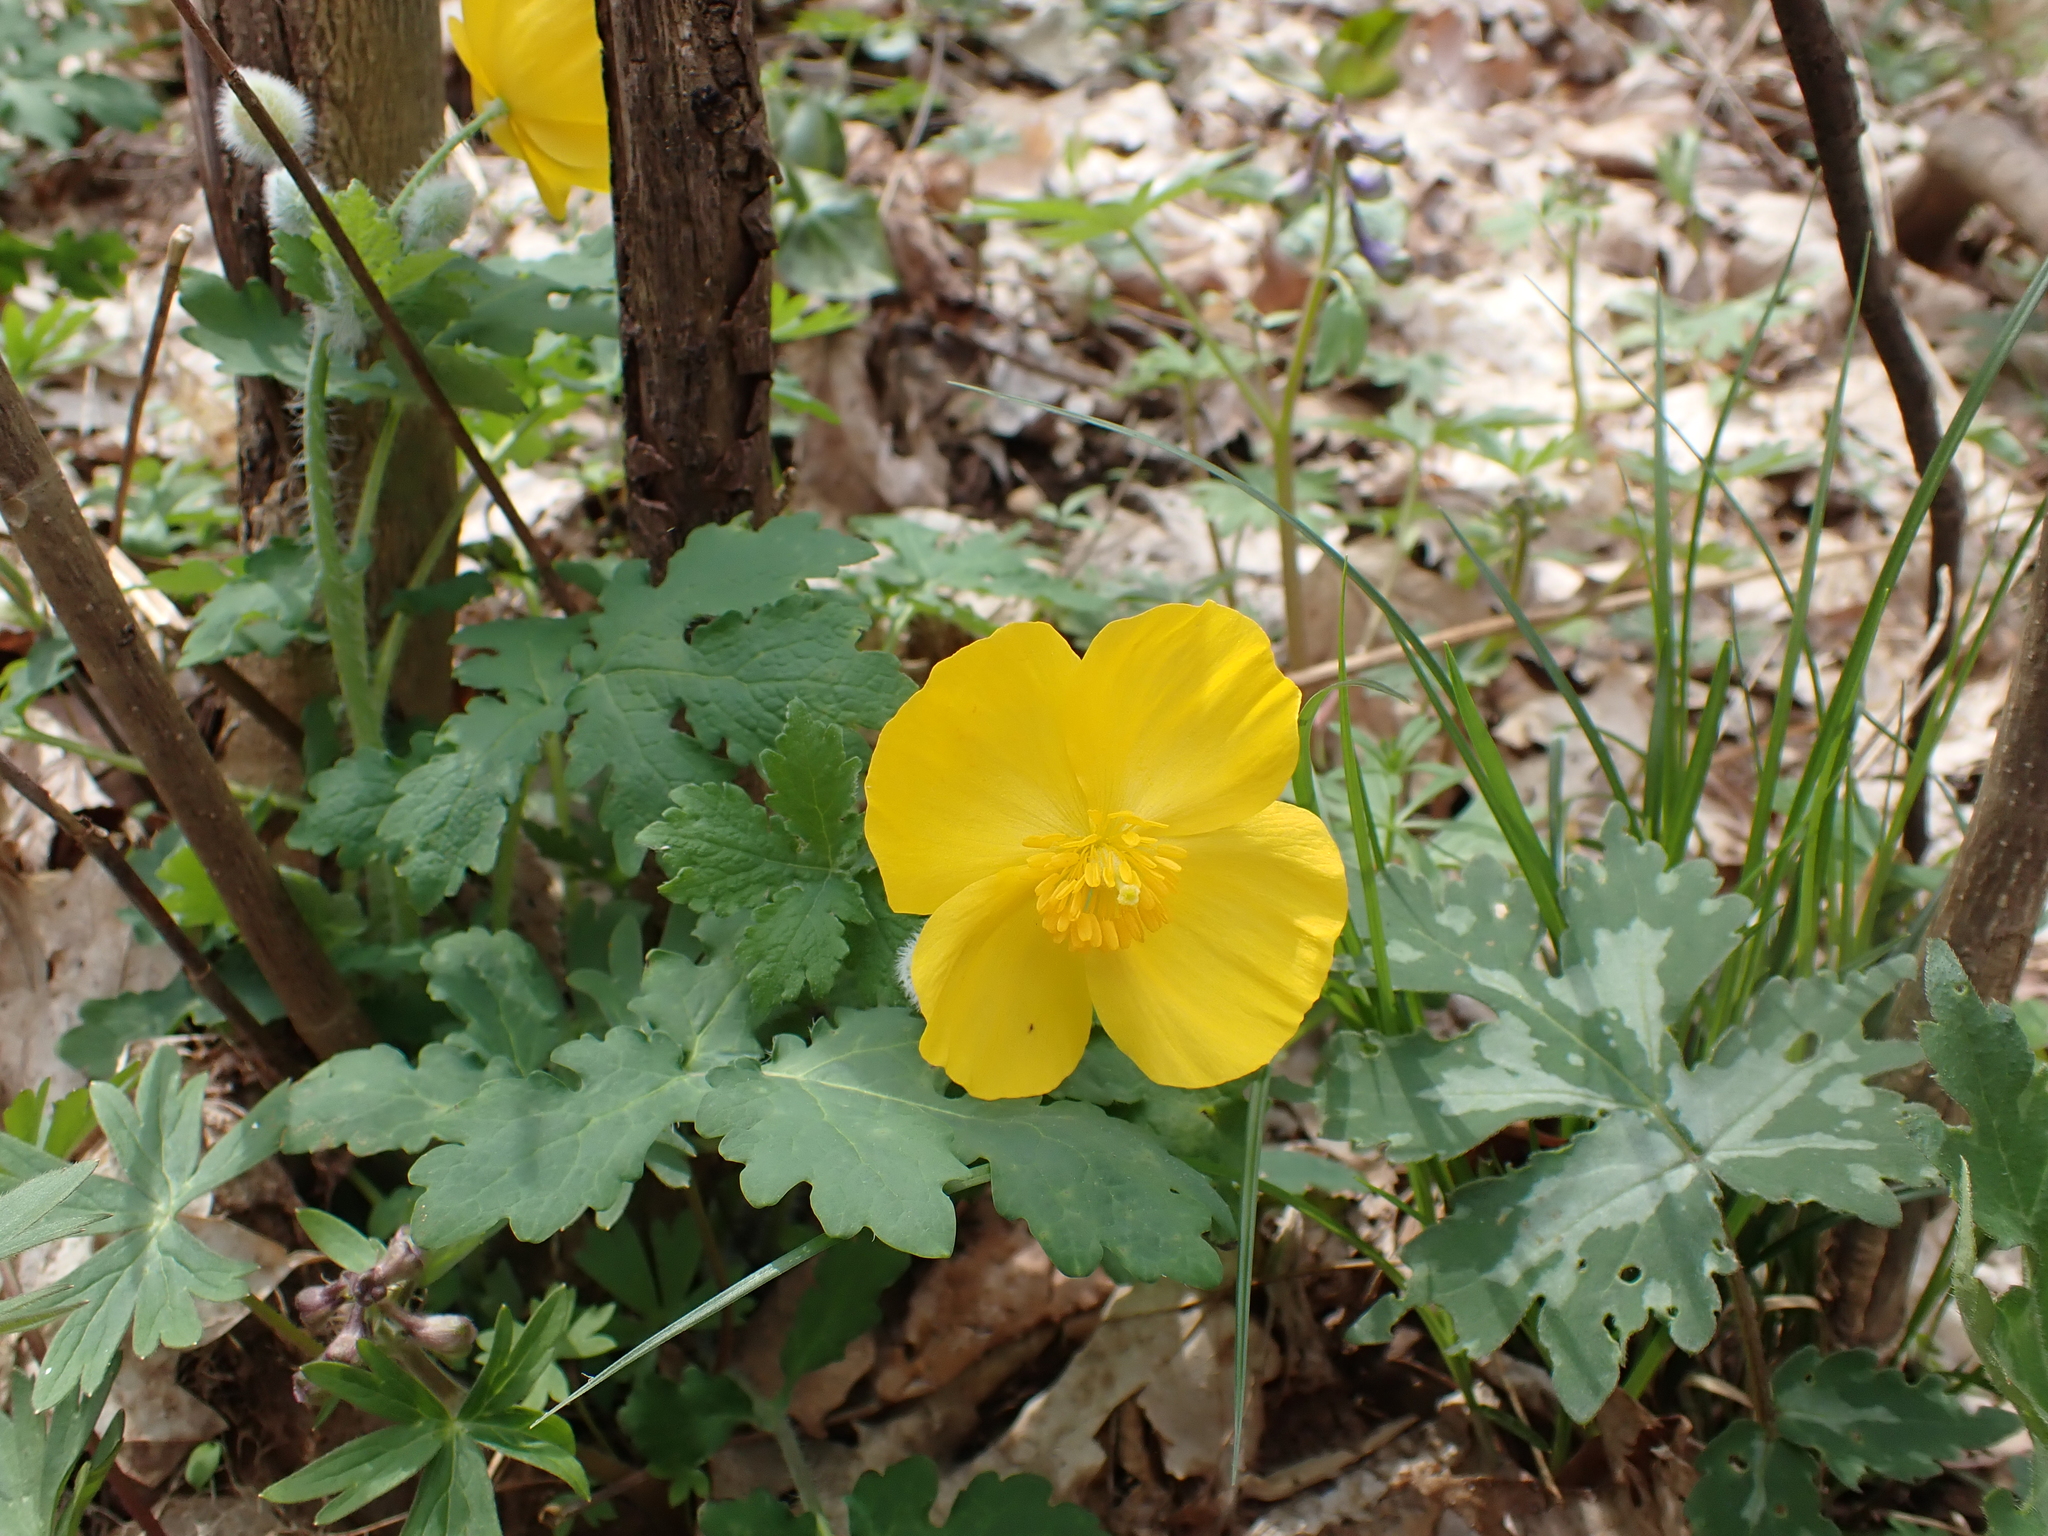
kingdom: Plantae
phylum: Tracheophyta
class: Magnoliopsida
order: Ranunculales
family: Papaveraceae
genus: Stylophorum
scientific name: Stylophorum diphyllum
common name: Celandine poppy
